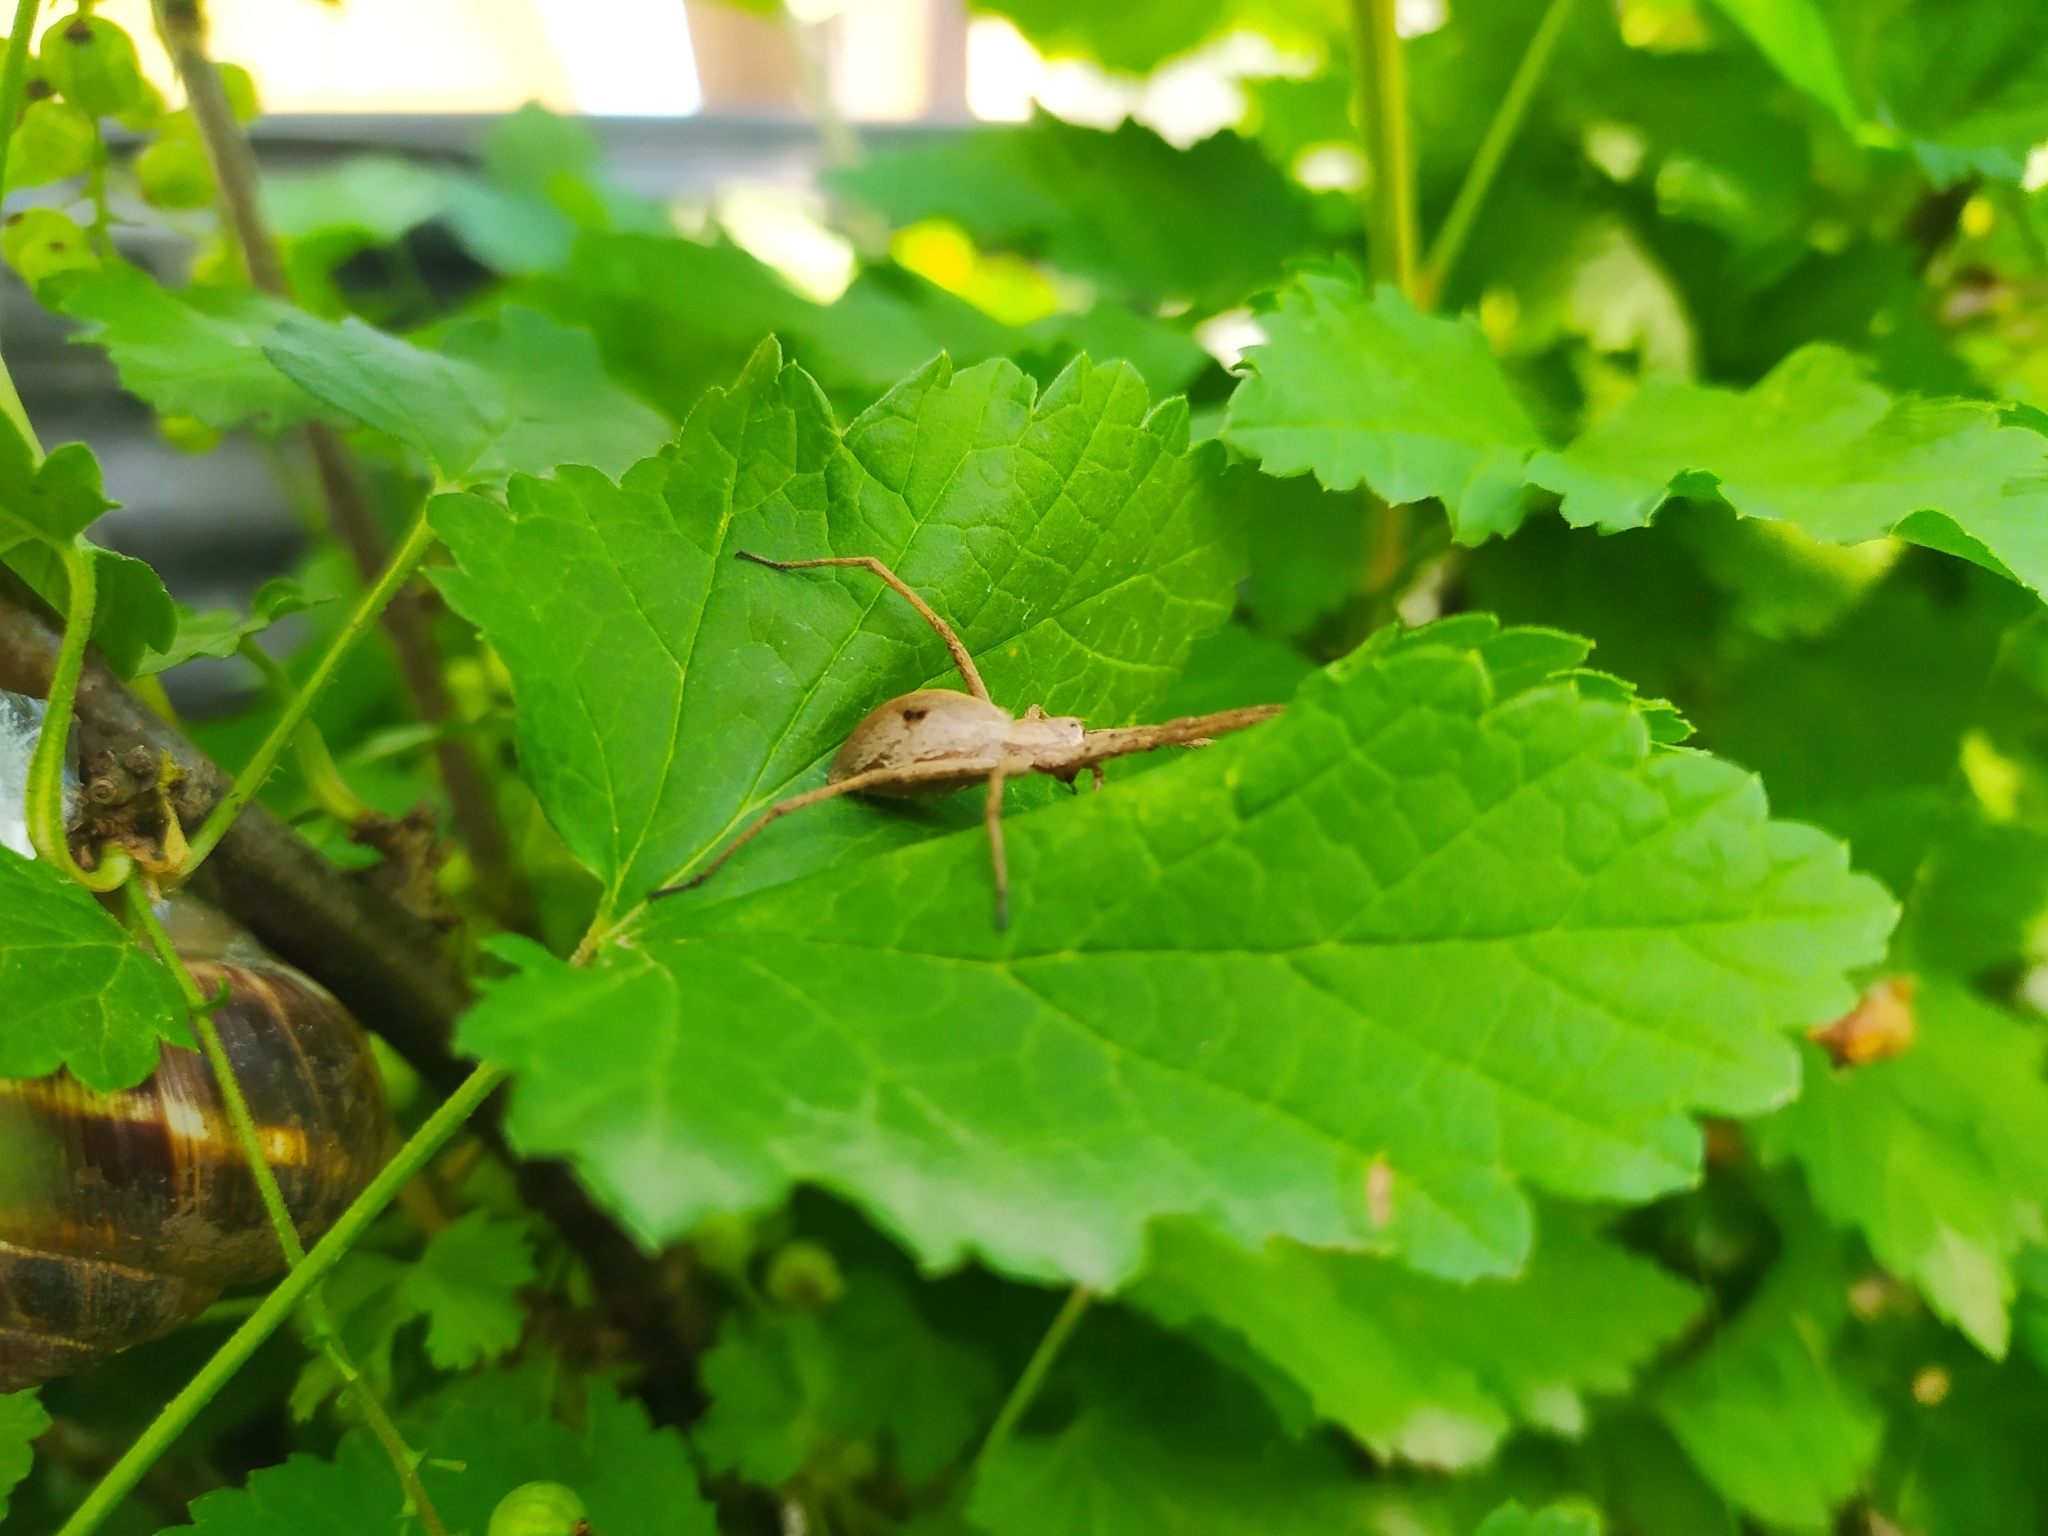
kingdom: Animalia
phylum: Arthropoda
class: Arachnida
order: Araneae
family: Pisauridae
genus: Pisaura
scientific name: Pisaura
